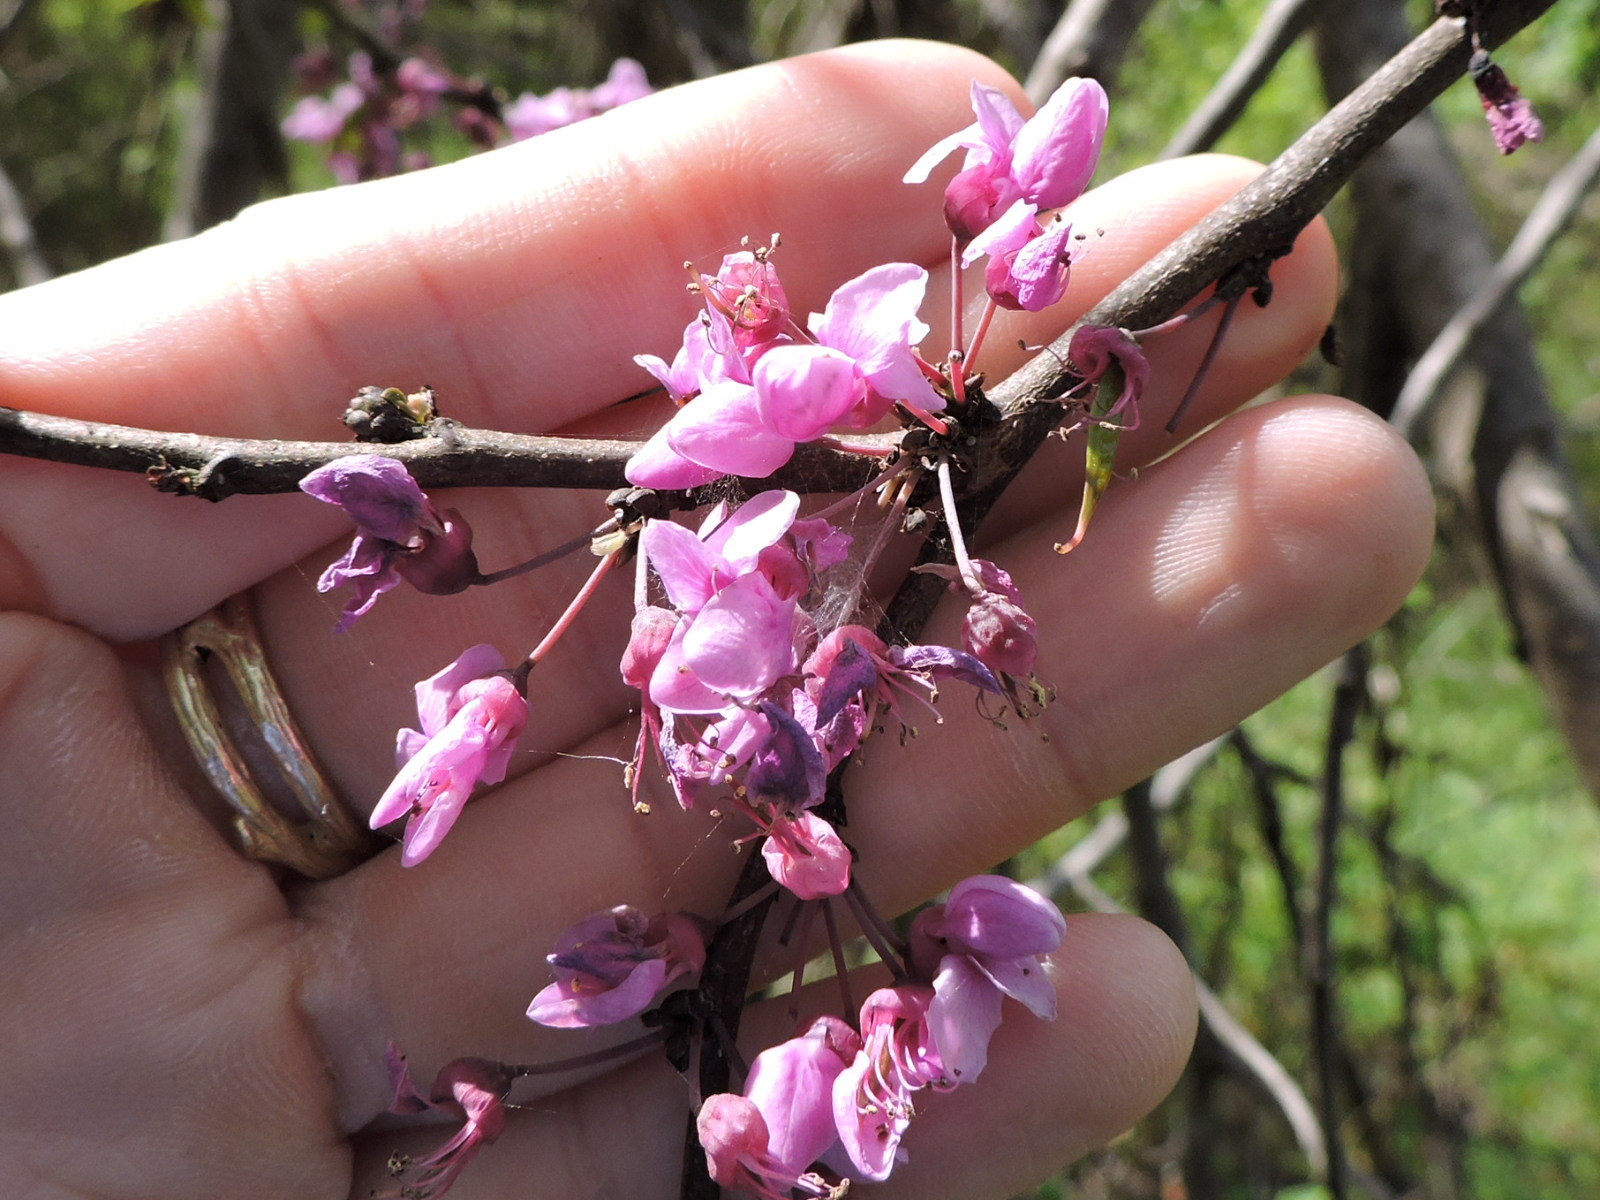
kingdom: Plantae
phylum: Tracheophyta
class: Magnoliopsida
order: Fabales
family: Fabaceae
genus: Cercis
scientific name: Cercis canadensis
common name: Eastern redbud
